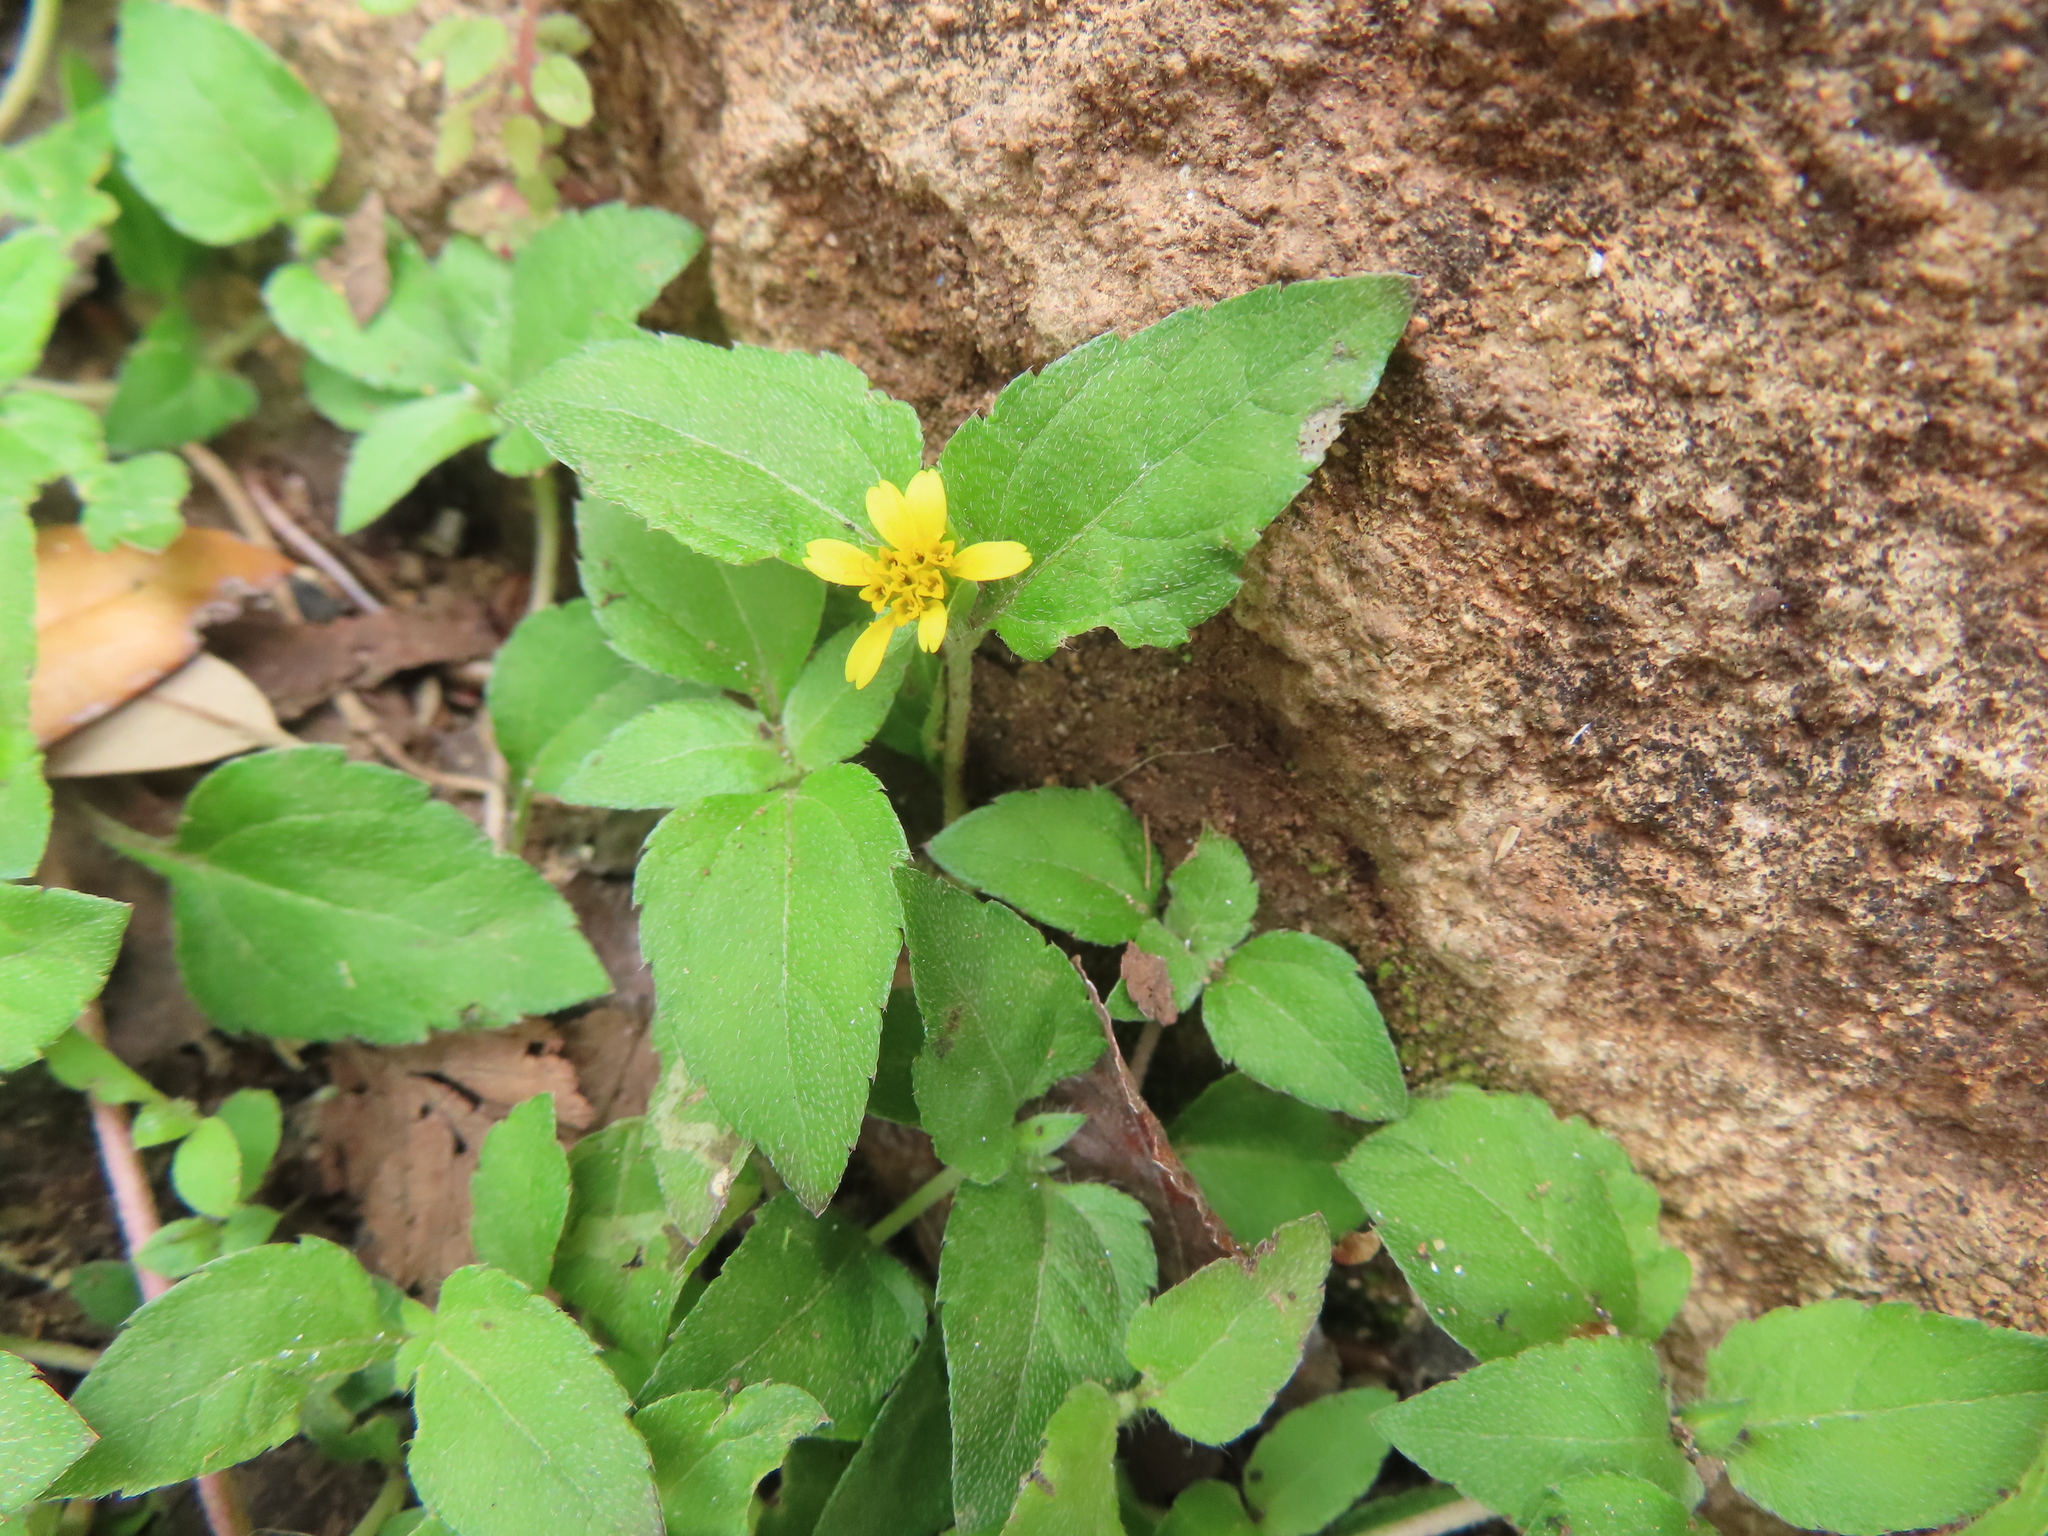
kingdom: Plantae
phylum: Tracheophyta
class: Magnoliopsida
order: Asterales
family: Asteraceae
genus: Calyptocarpus
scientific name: Calyptocarpus vialis
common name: Straggler daisy
